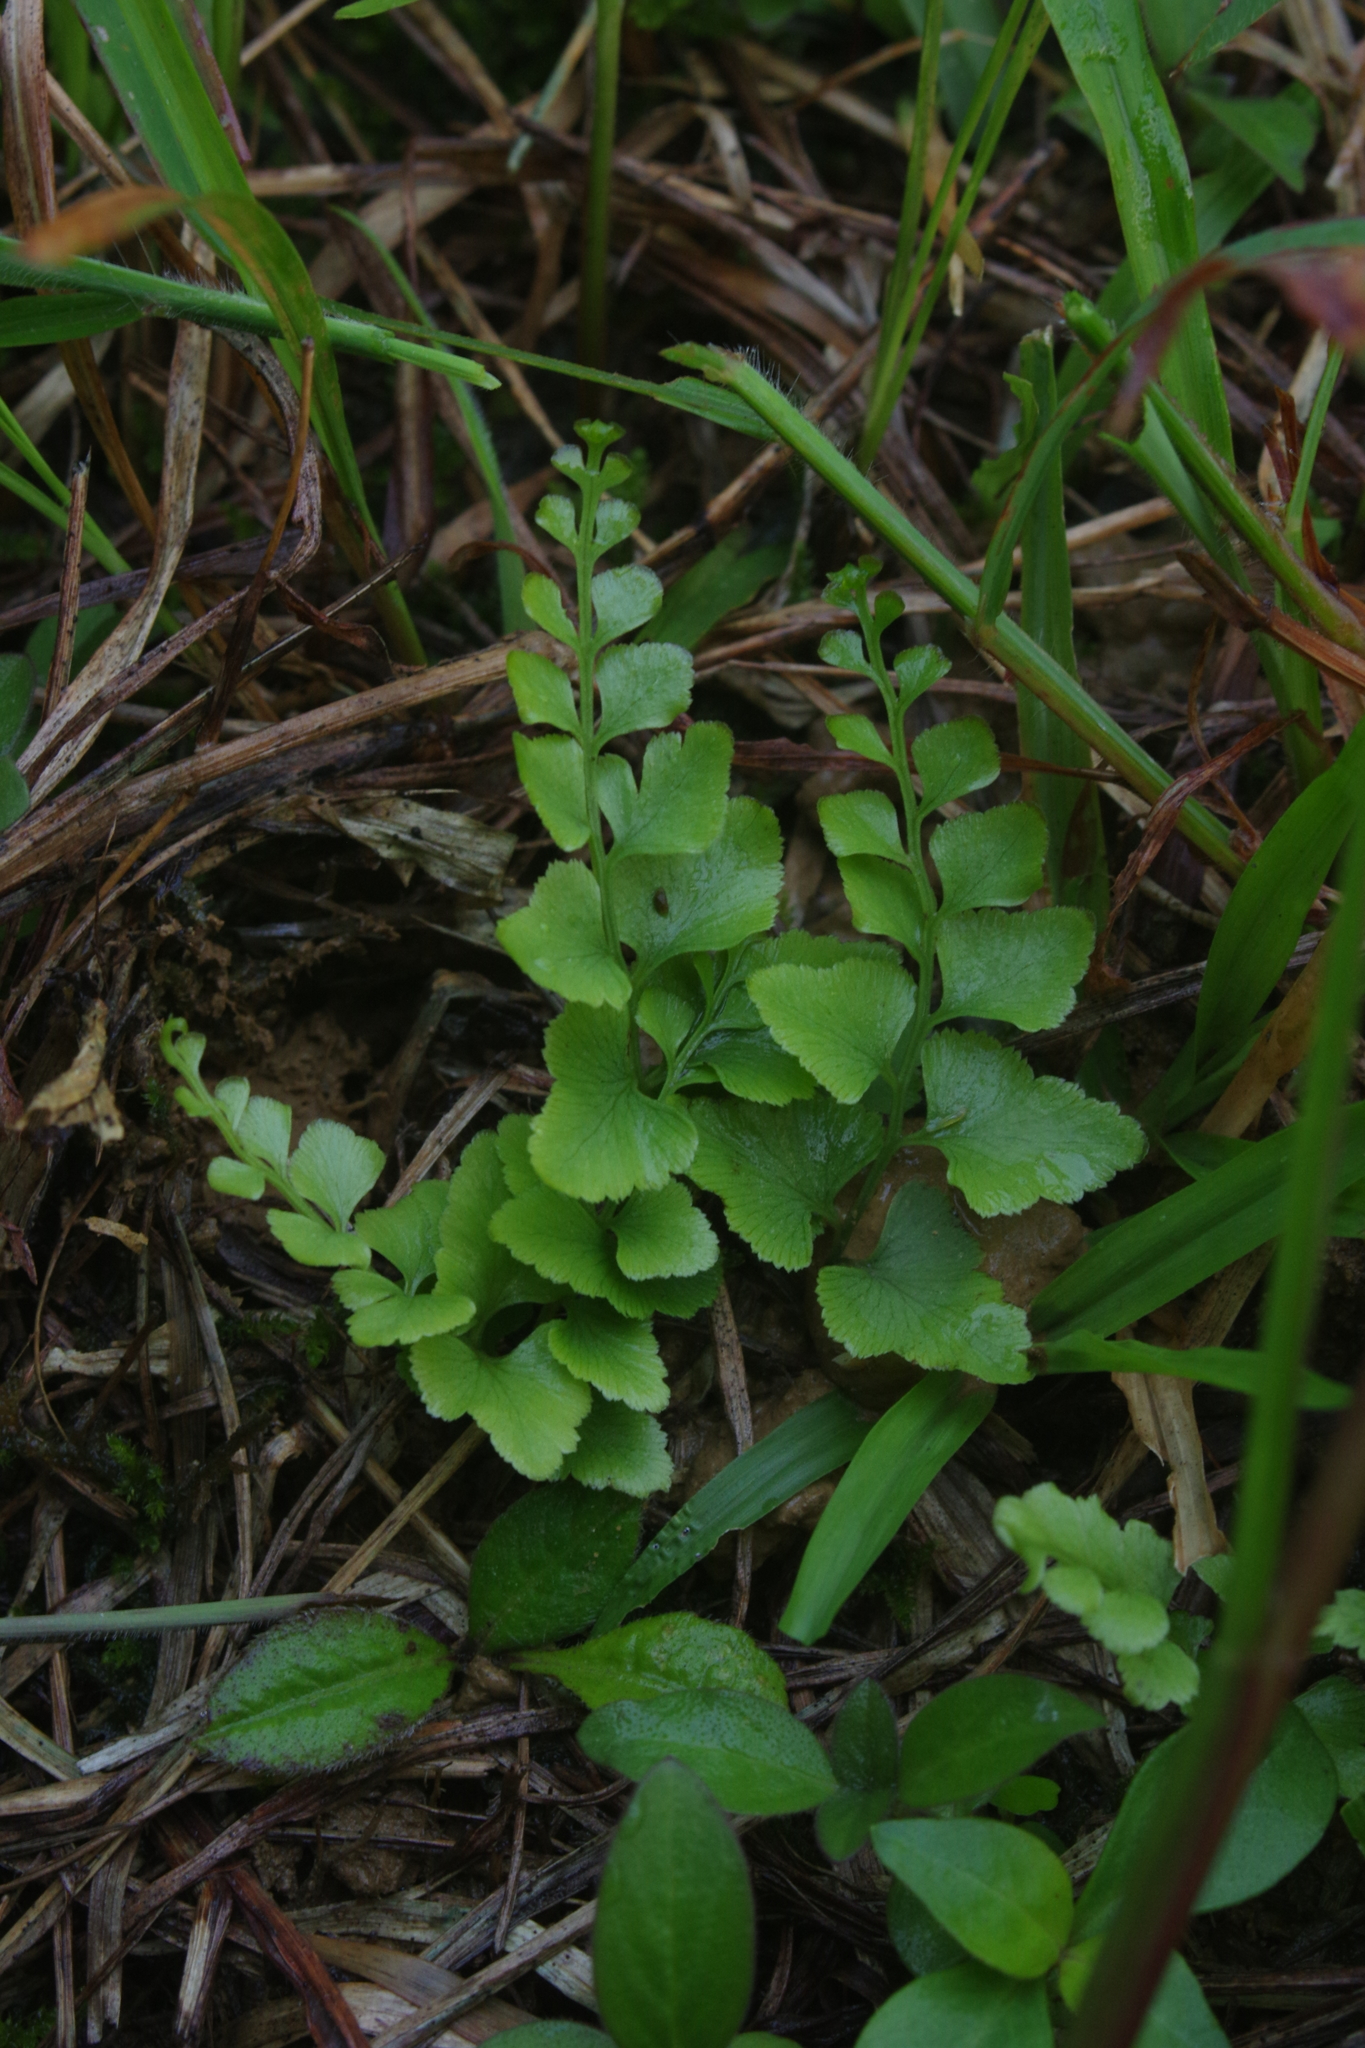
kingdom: Plantae
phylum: Tracheophyta
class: Polypodiopsida
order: Polypodiales
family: Lindsaeaceae
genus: Lindsaea
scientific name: Lindsaea heterophylla
